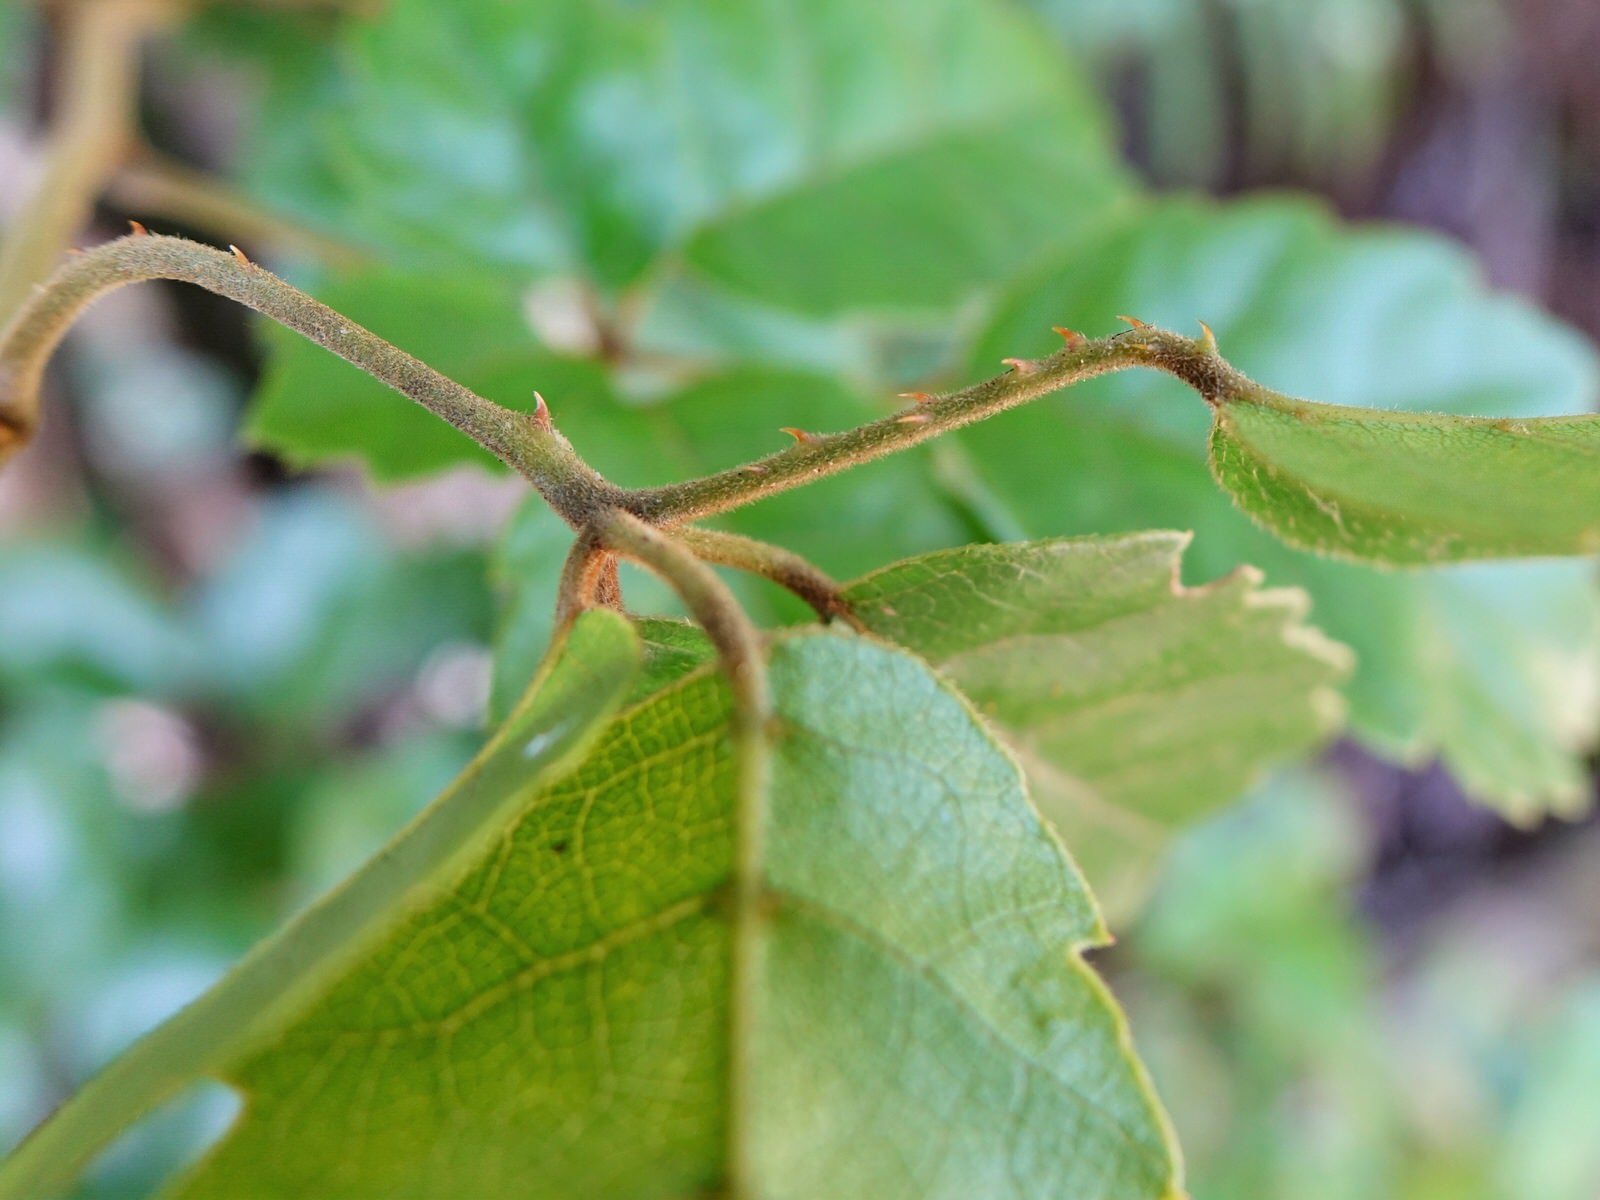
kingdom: Plantae
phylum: Tracheophyta
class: Magnoliopsida
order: Rosales
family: Rosaceae
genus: Rubus
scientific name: Rubus australis
